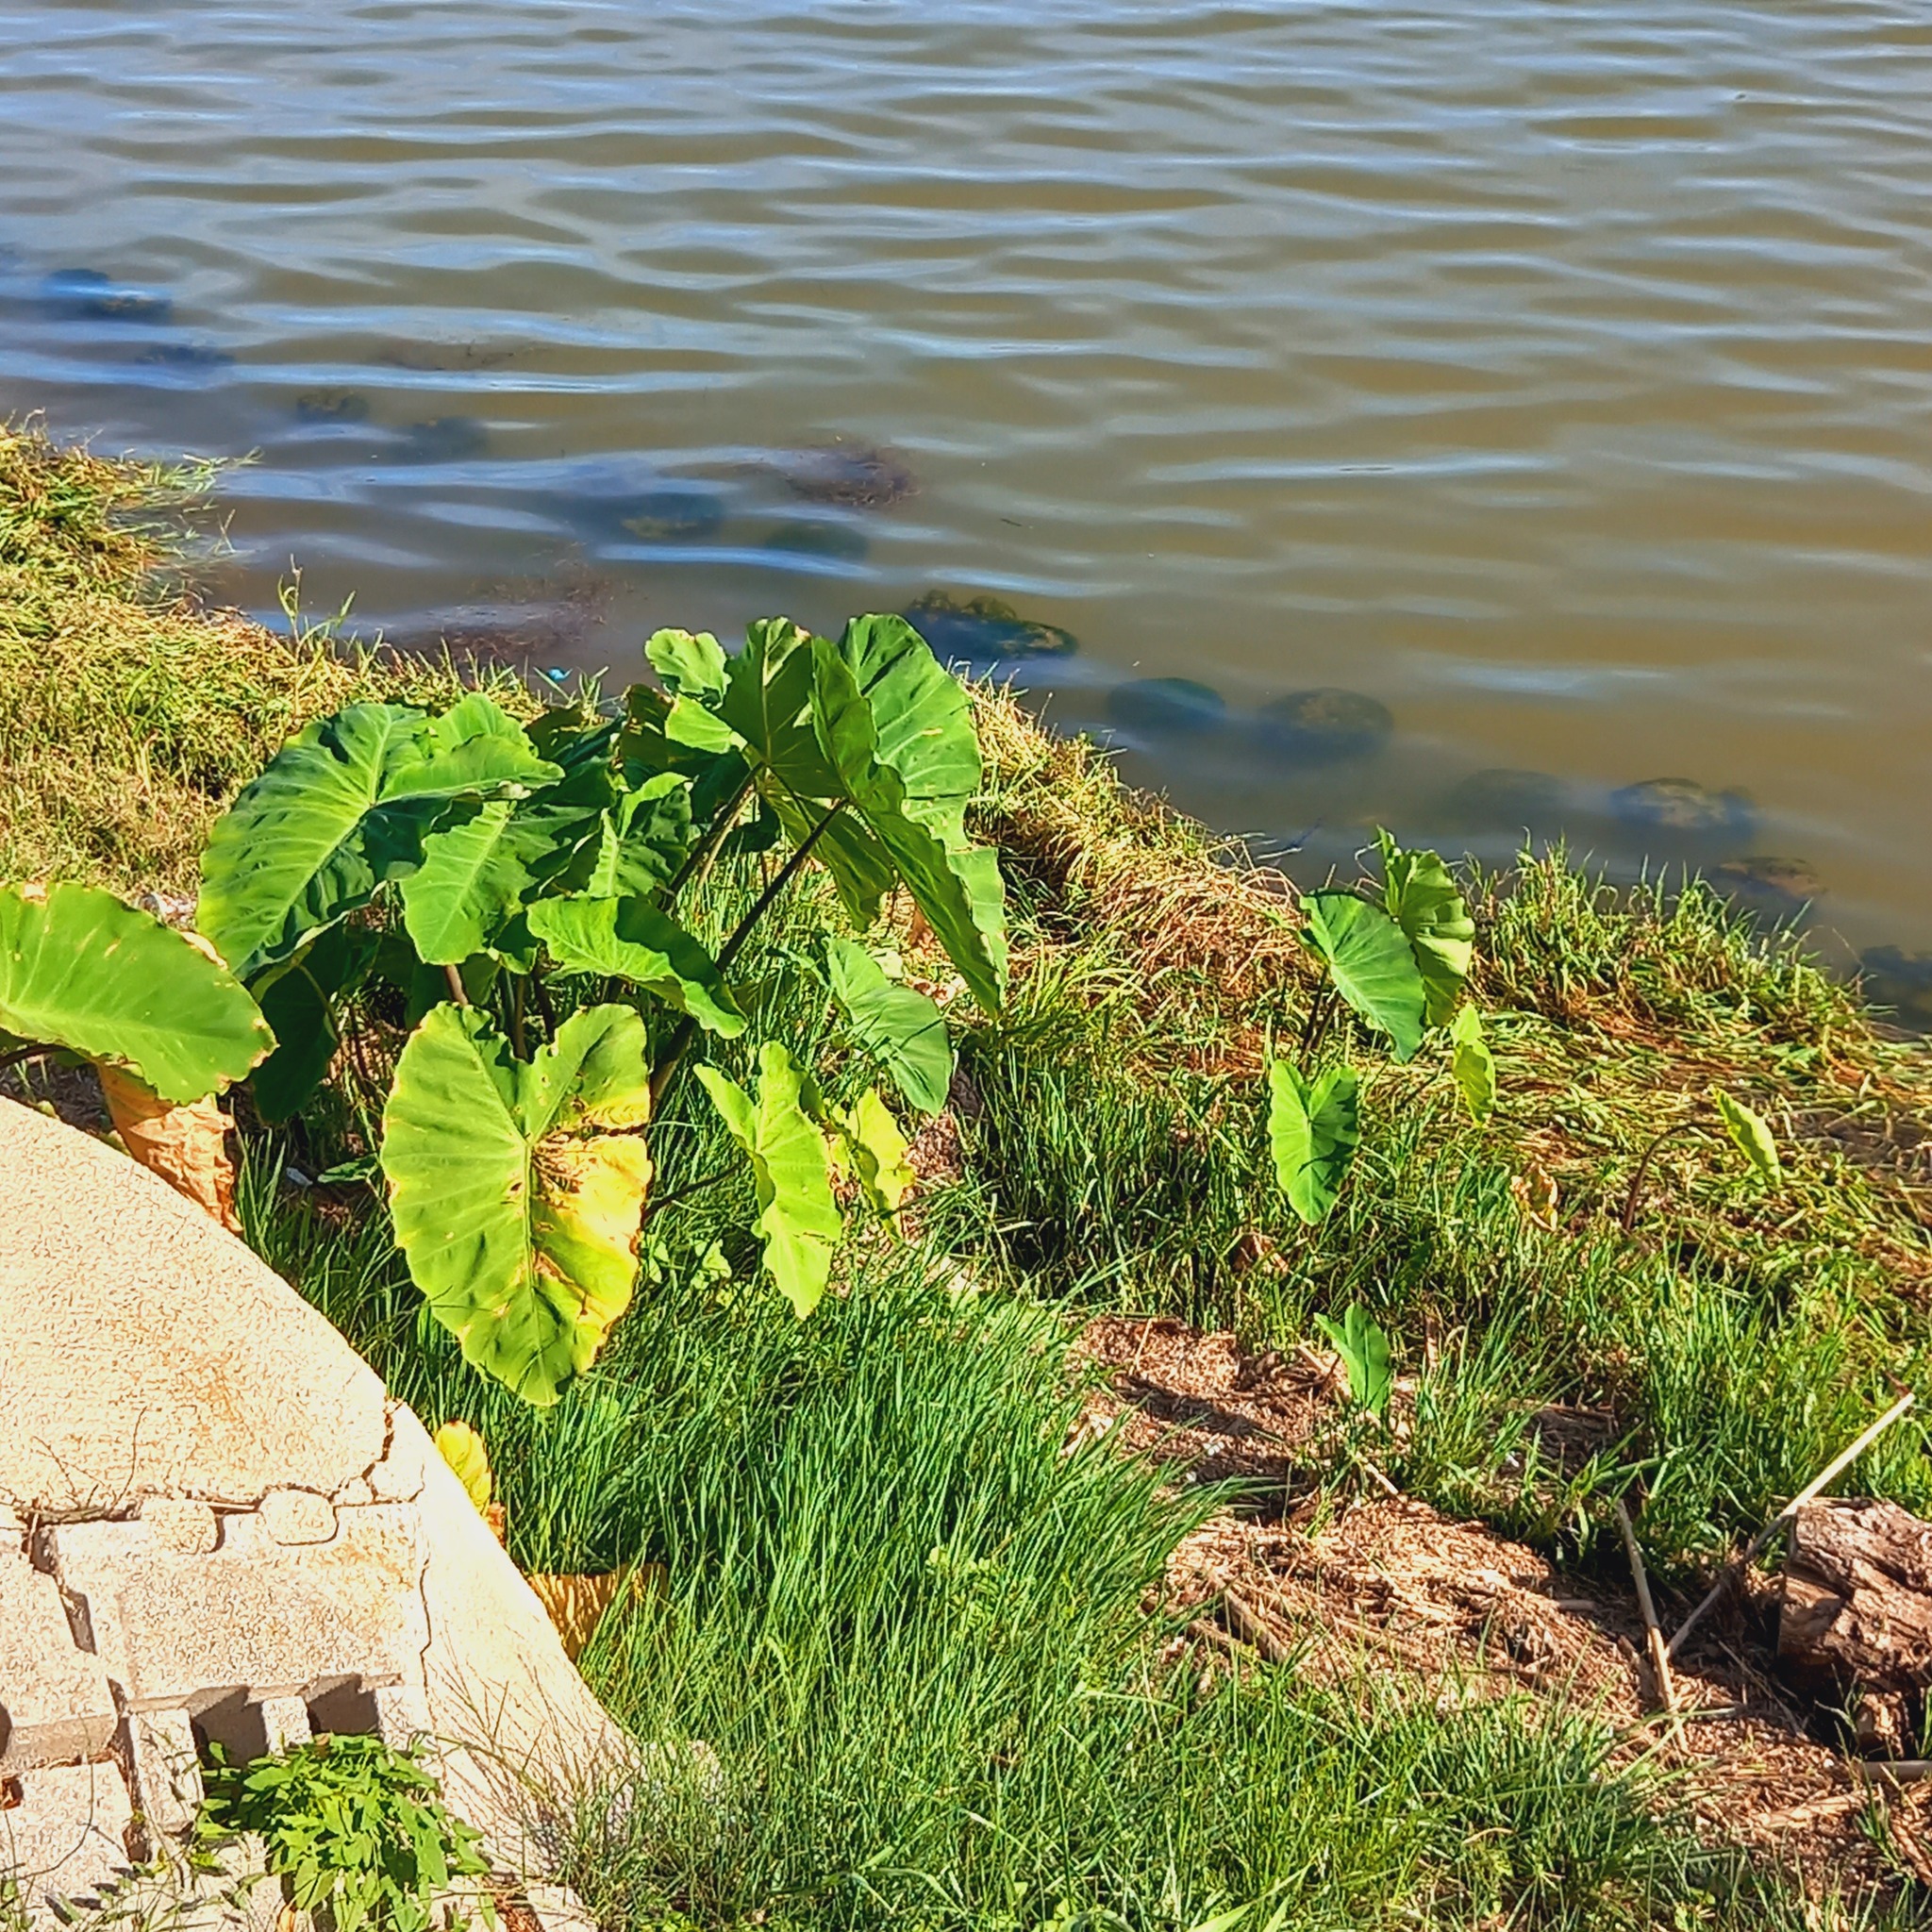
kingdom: Plantae
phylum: Tracheophyta
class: Liliopsida
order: Alismatales
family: Araceae
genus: Colocasia
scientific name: Colocasia esculenta
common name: Taro
